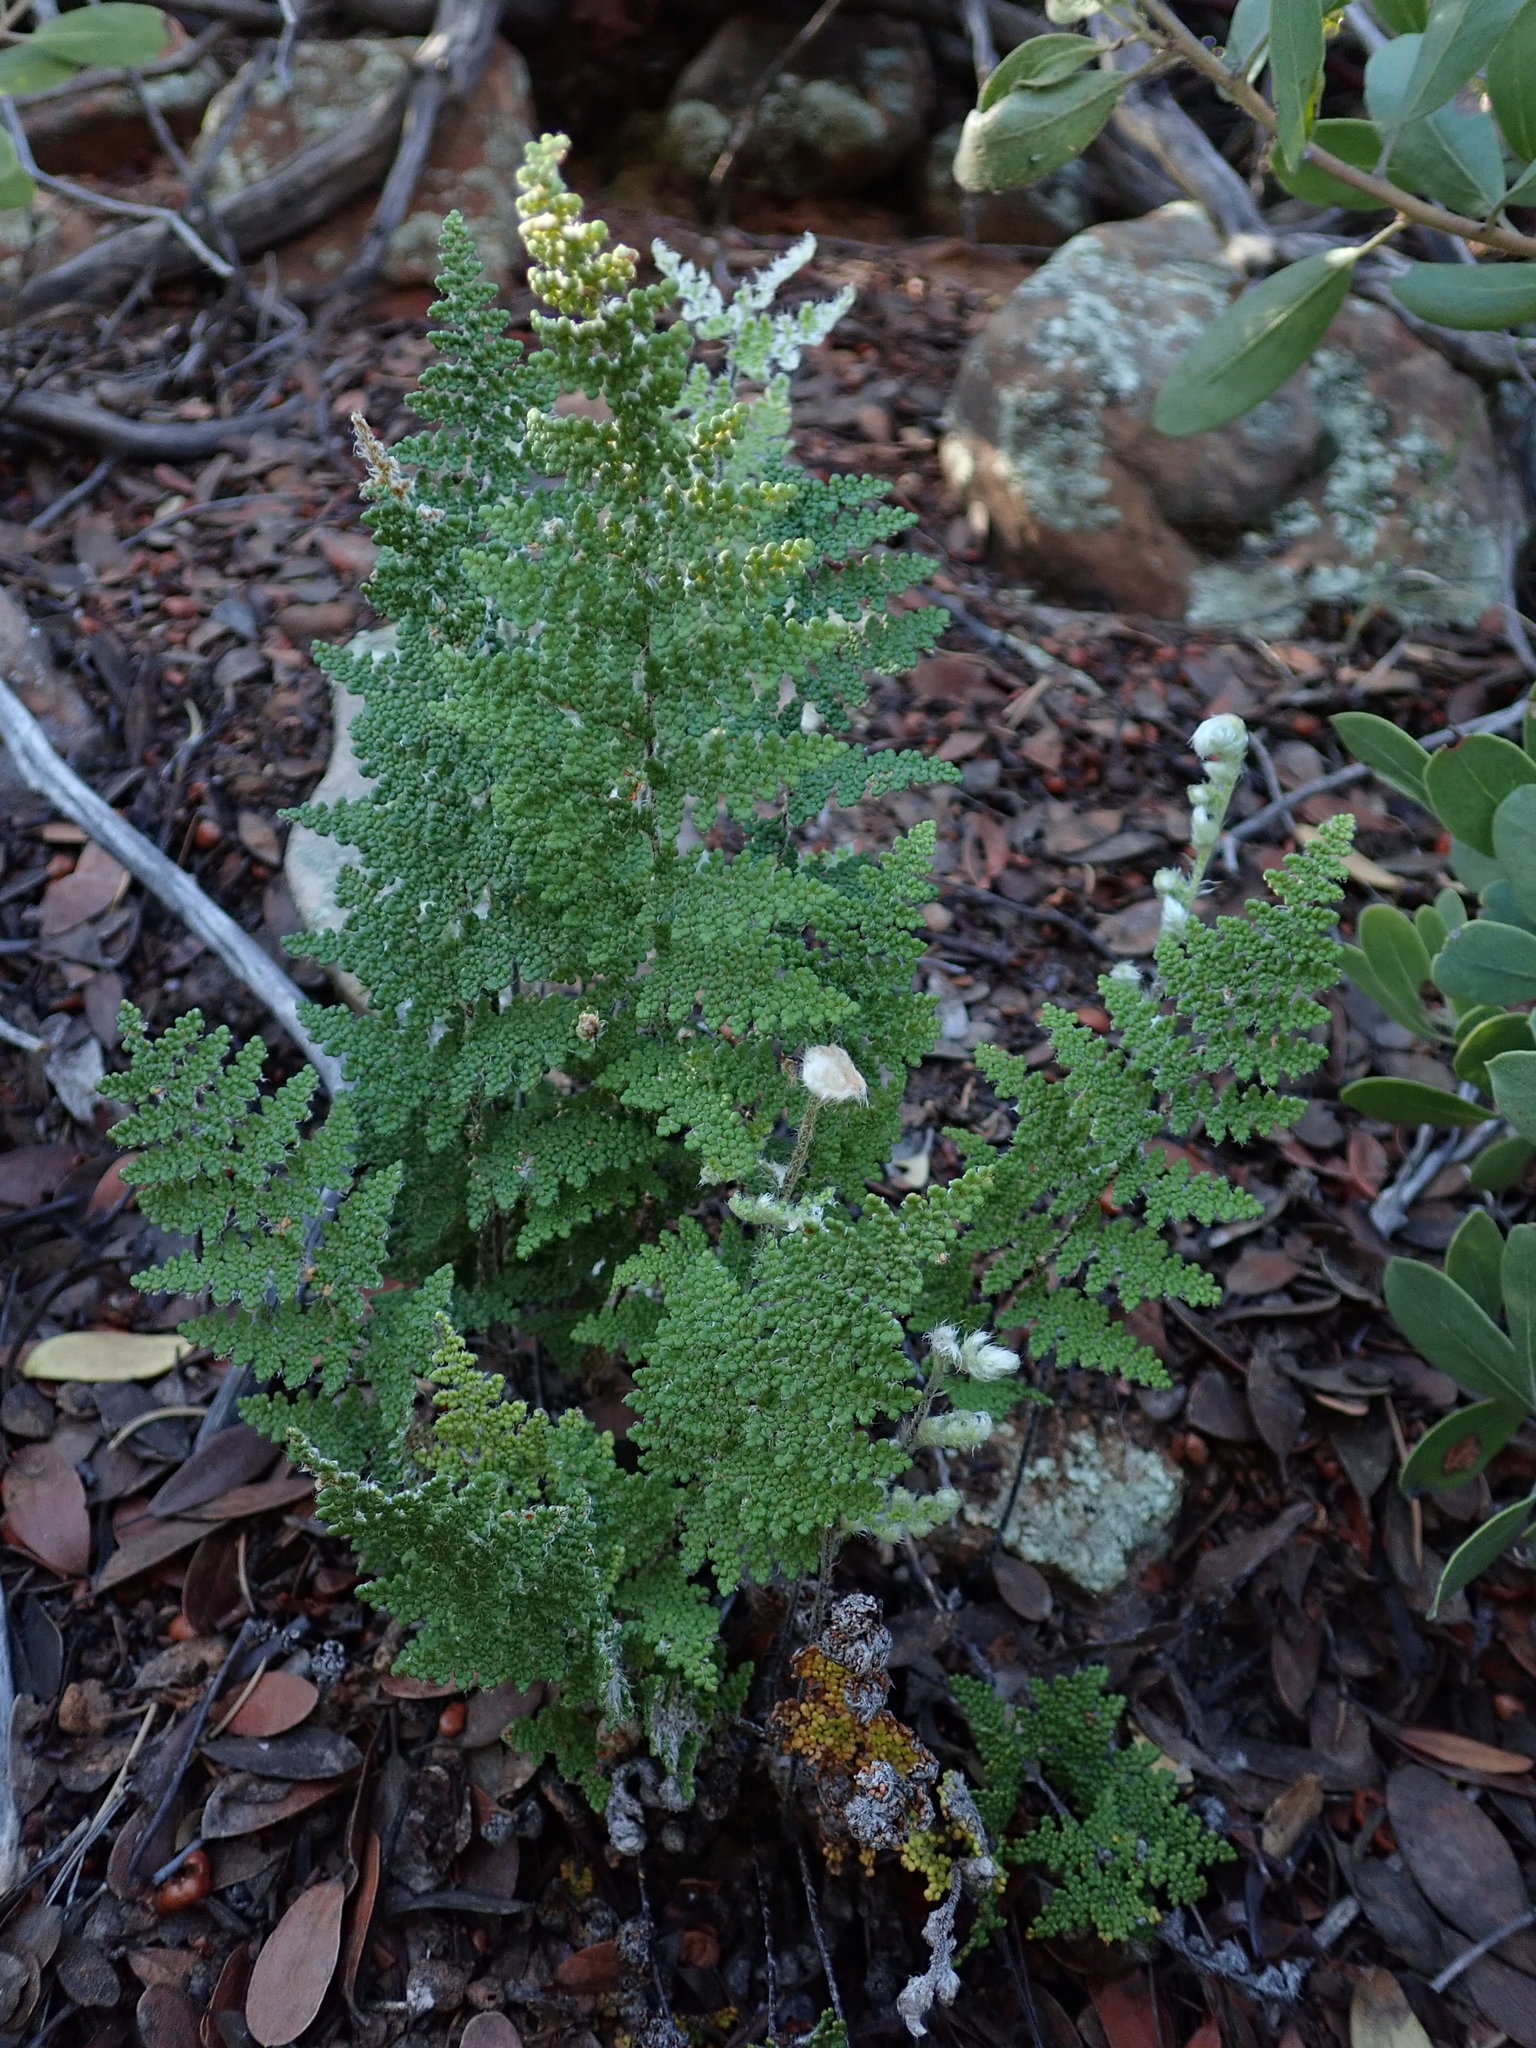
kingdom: Plantae
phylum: Tracheophyta
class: Polypodiopsida
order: Polypodiales
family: Pteridaceae
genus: Myriopteris
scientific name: Myriopteris covillei
